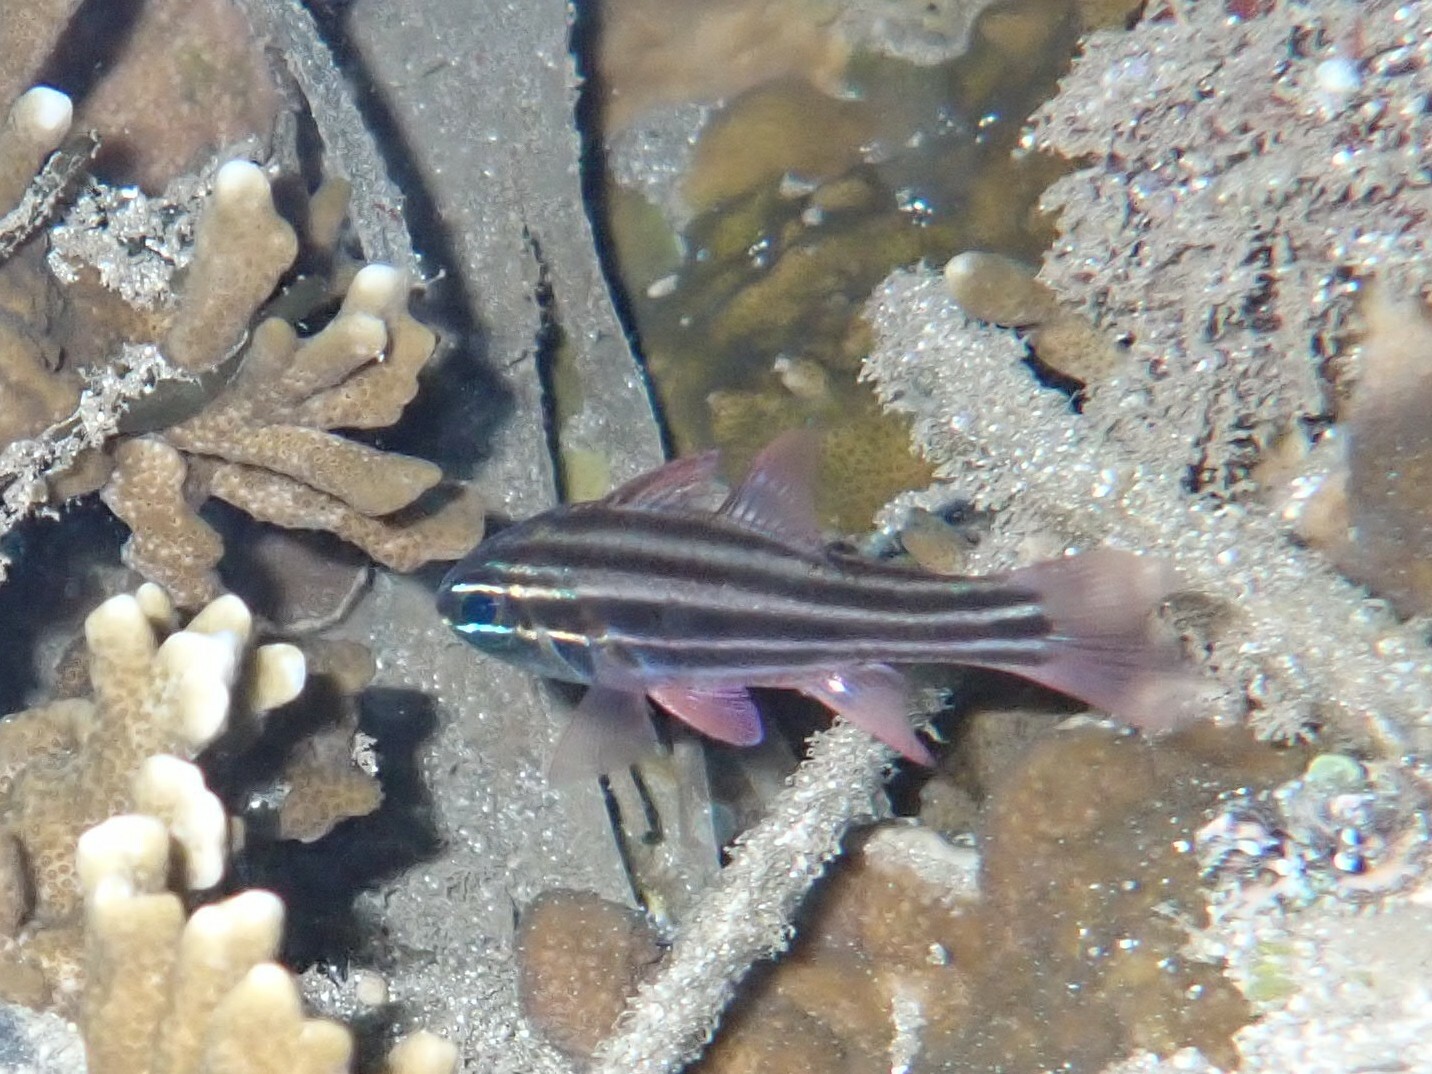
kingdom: Animalia
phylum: Chordata
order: Perciformes
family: Apogonidae
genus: Ostorhinchus
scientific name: Ostorhinchus nigrofasciatus
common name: Blackstripe cardinalfish
